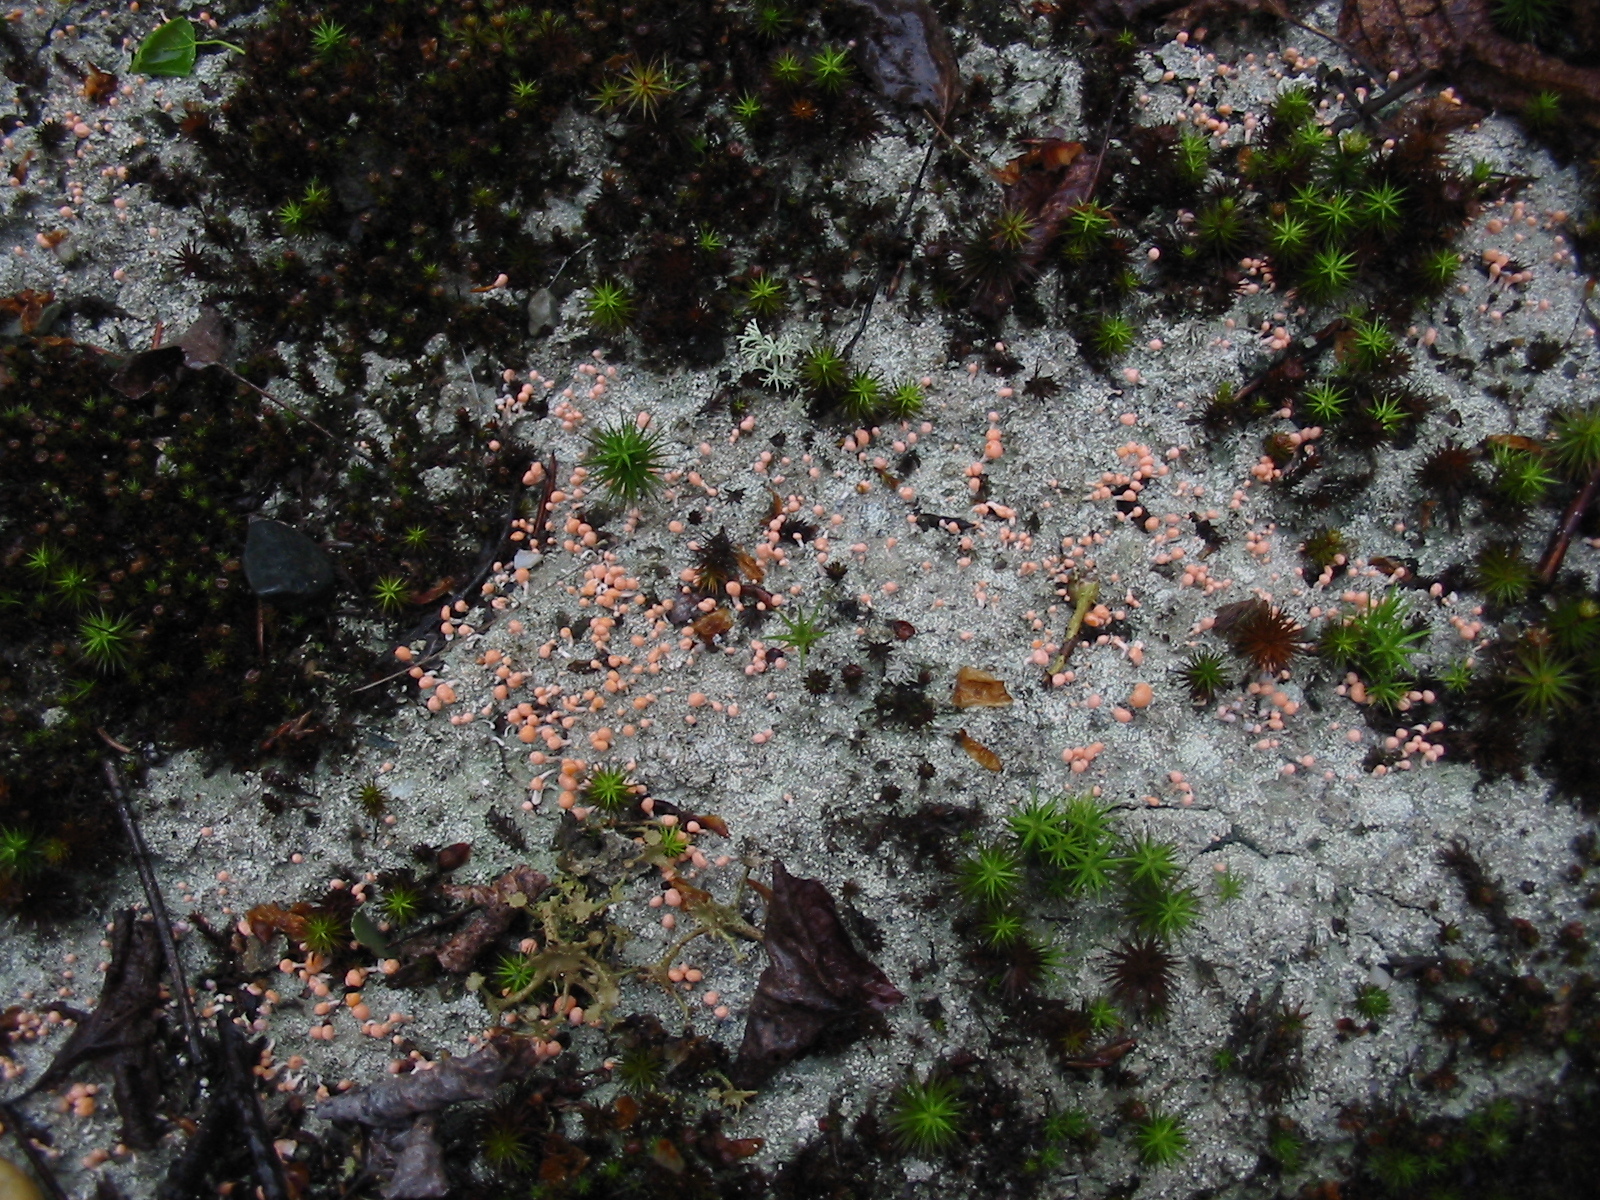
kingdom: Fungi
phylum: Ascomycota
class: Lecanoromycetes
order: Pertusariales
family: Icmadophilaceae
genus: Dibaeis
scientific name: Dibaeis baeomyces
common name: Pink earth lichen
